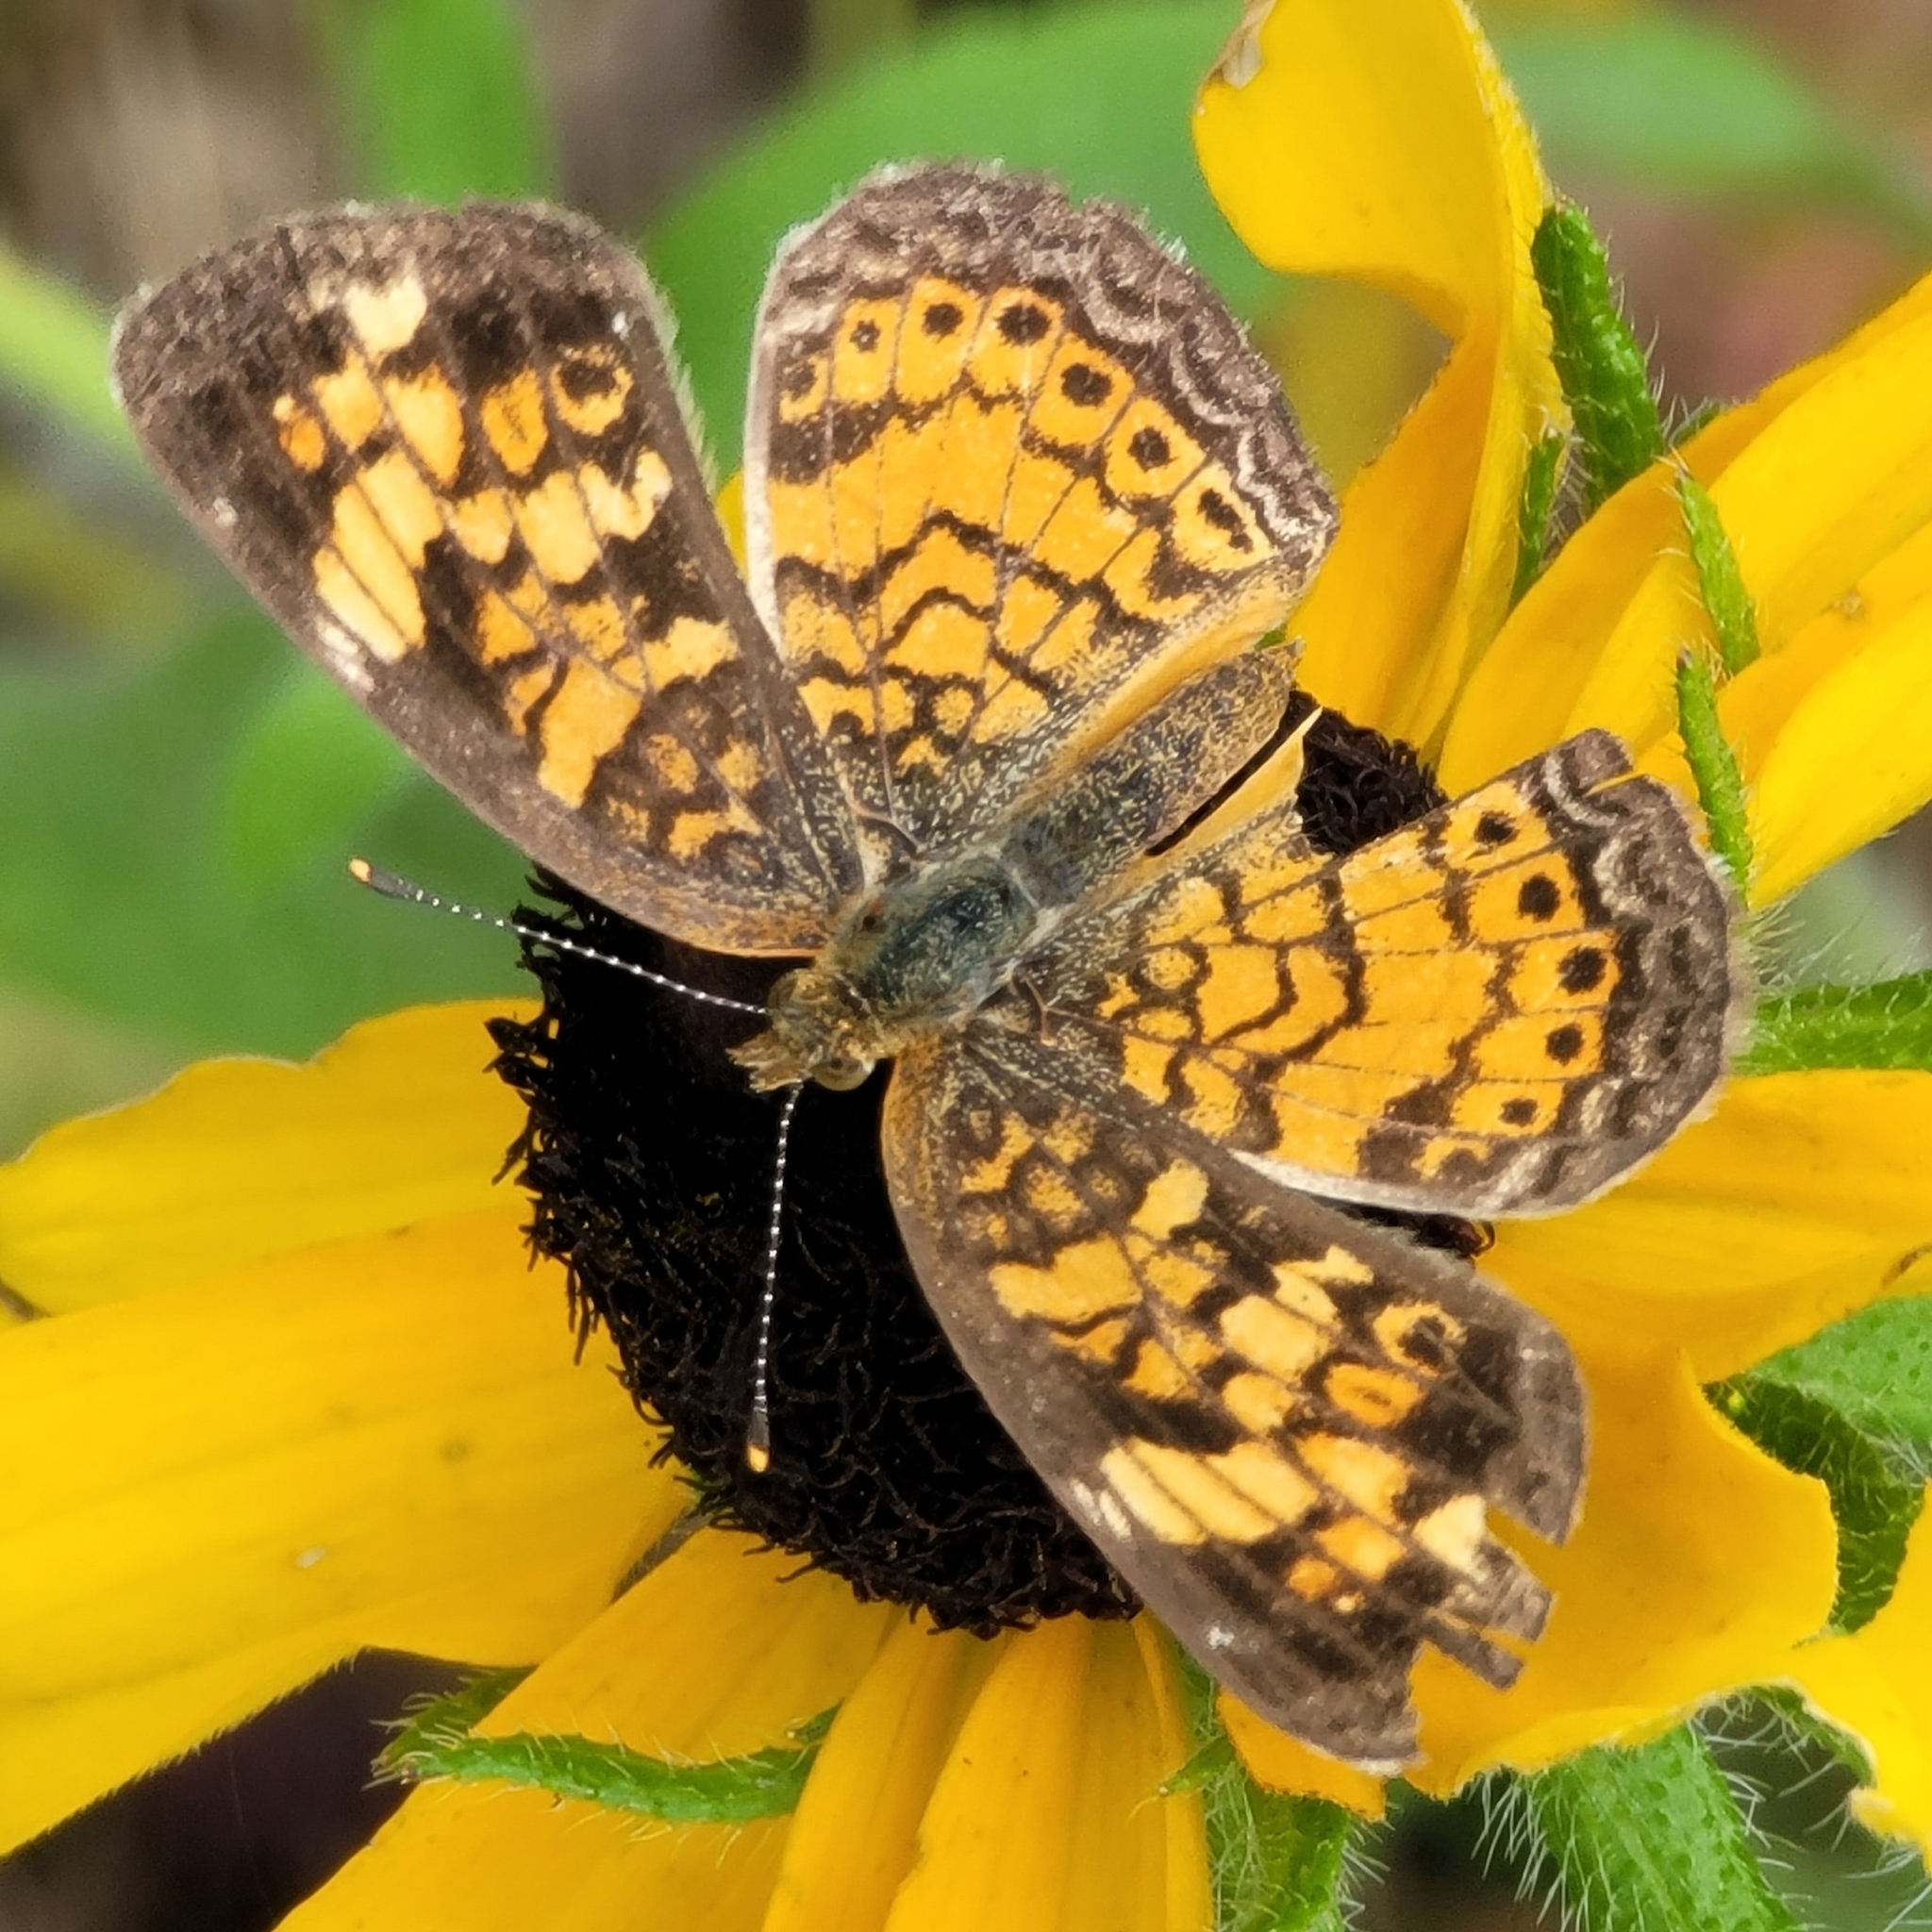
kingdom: Animalia
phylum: Arthropoda
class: Insecta
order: Lepidoptera
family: Nymphalidae
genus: Phyciodes
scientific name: Phyciodes tharos
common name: Pearl crescent
